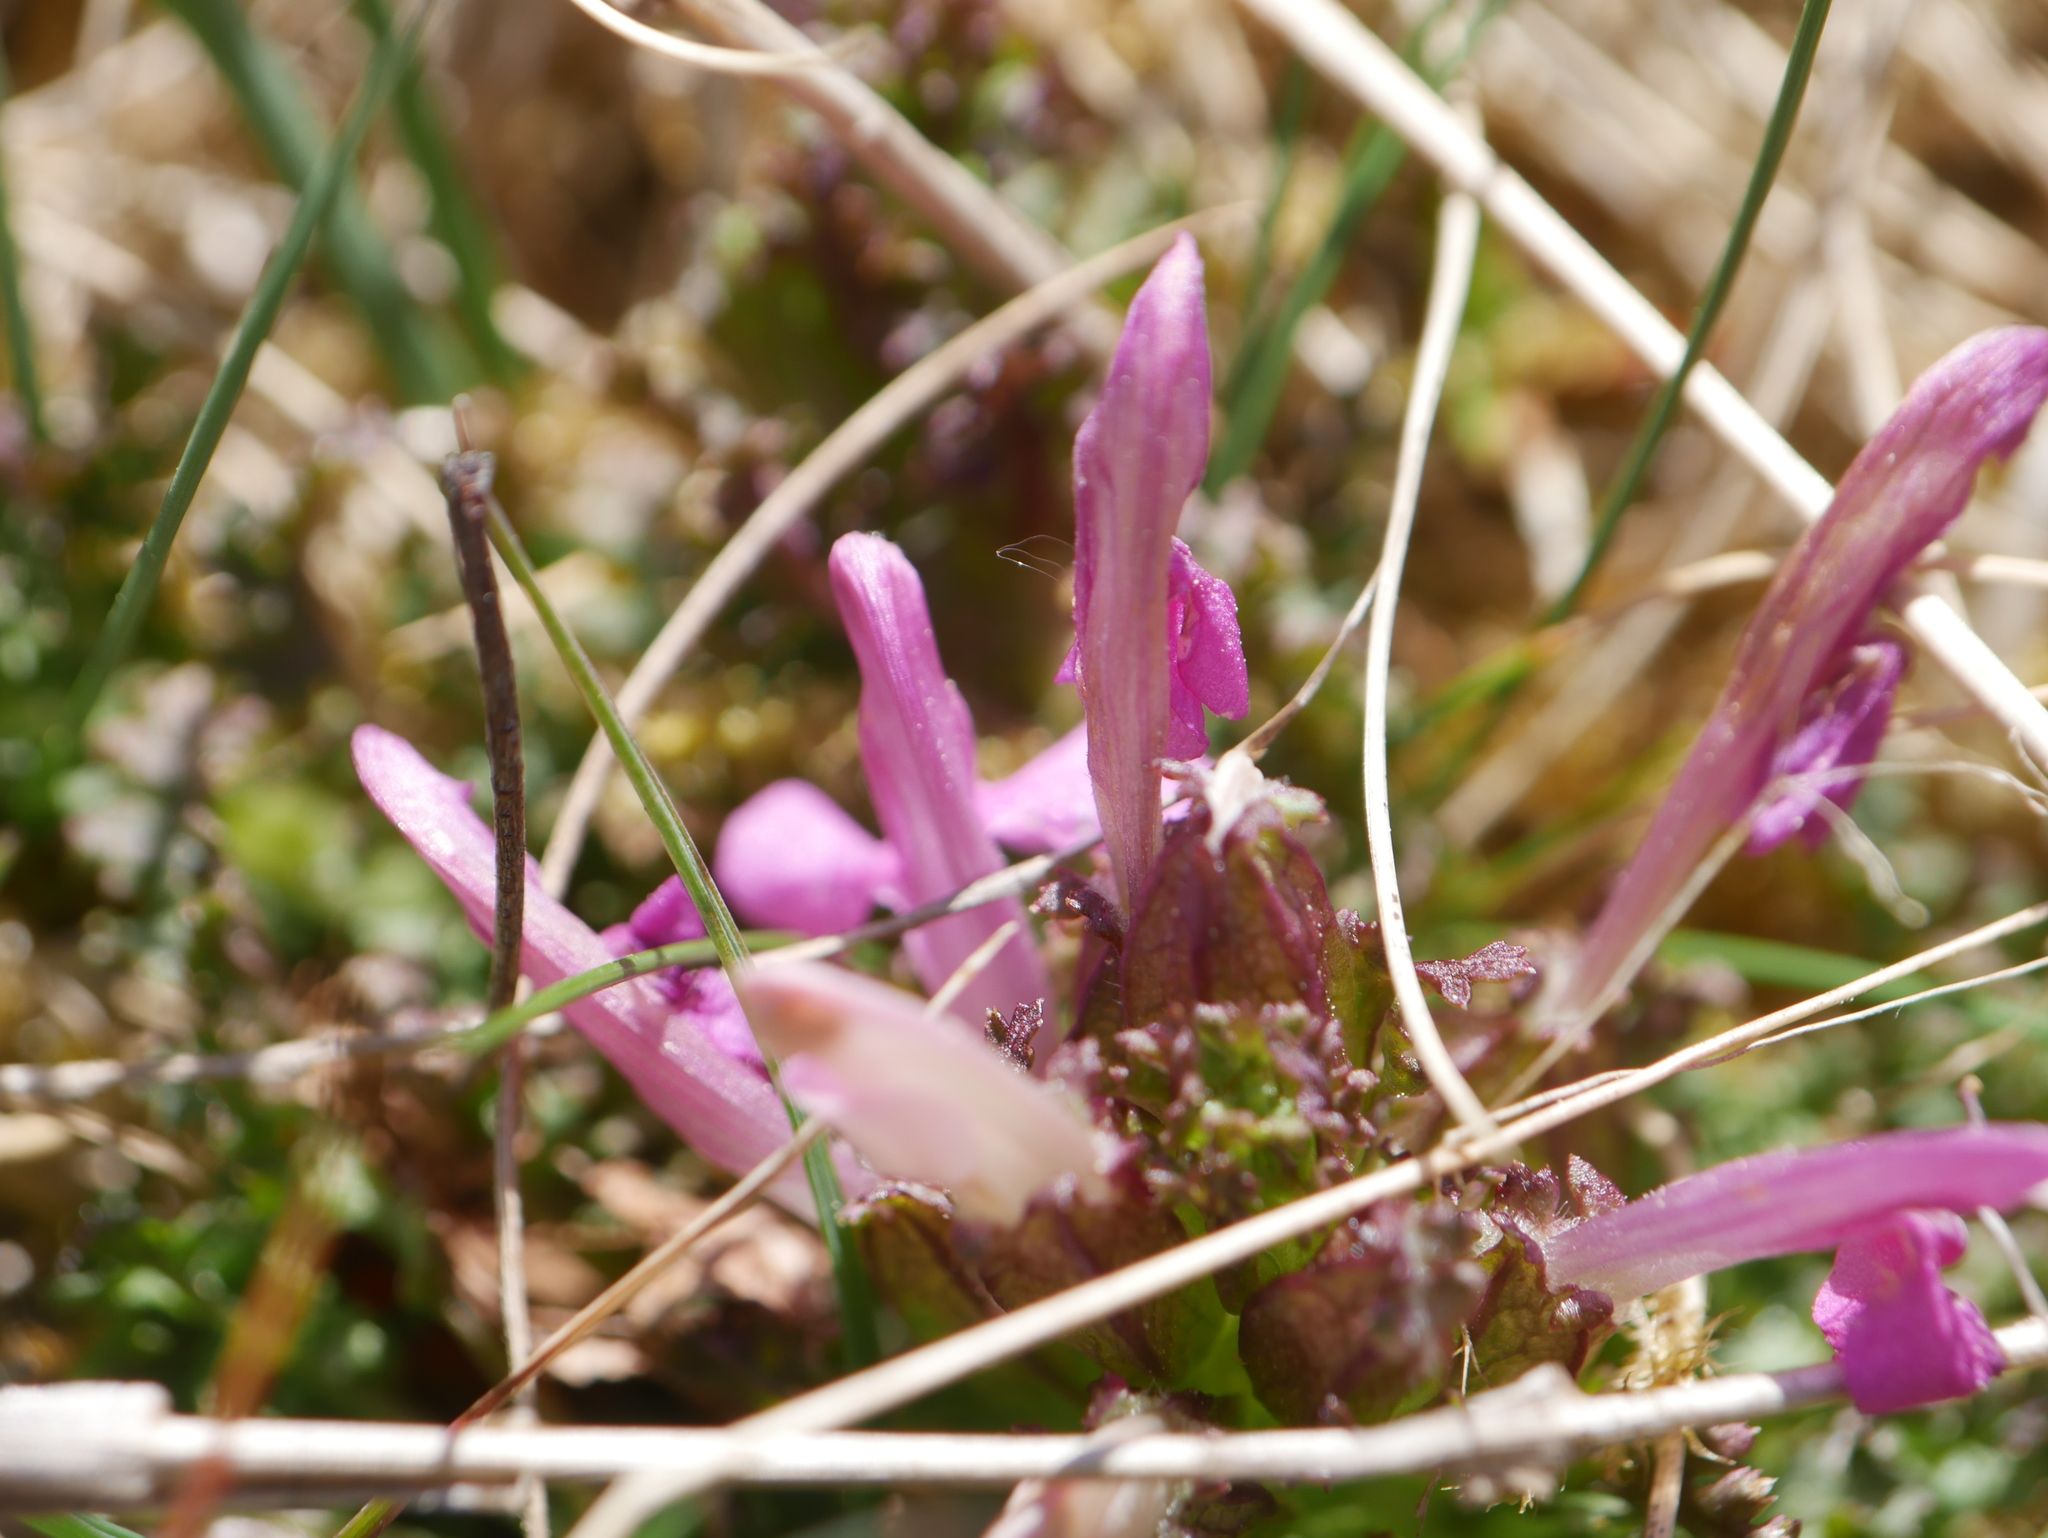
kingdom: Plantae
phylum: Tracheophyta
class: Magnoliopsida
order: Lamiales
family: Orobanchaceae
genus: Pedicularis
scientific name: Pedicularis sylvatica
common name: Lousewort
